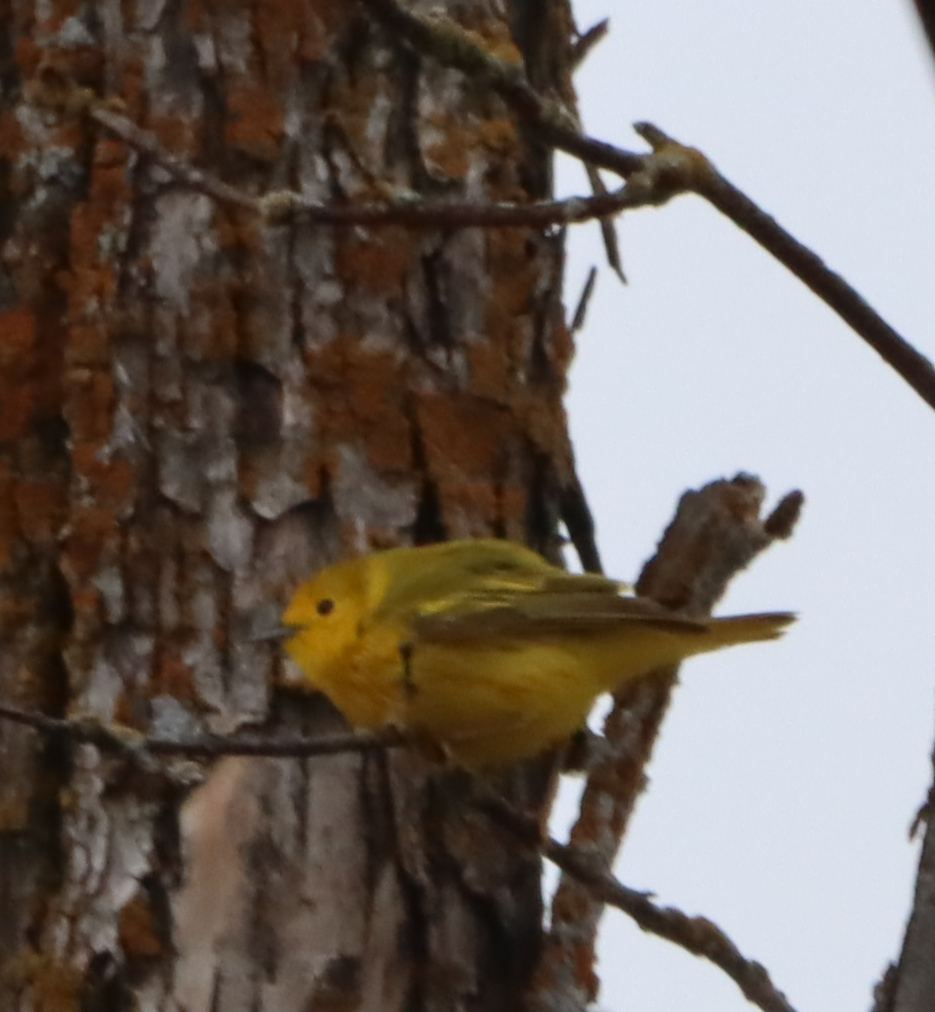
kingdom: Animalia
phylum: Chordata
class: Aves
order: Passeriformes
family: Parulidae
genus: Setophaga
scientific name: Setophaga petechia
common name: Yellow warbler
